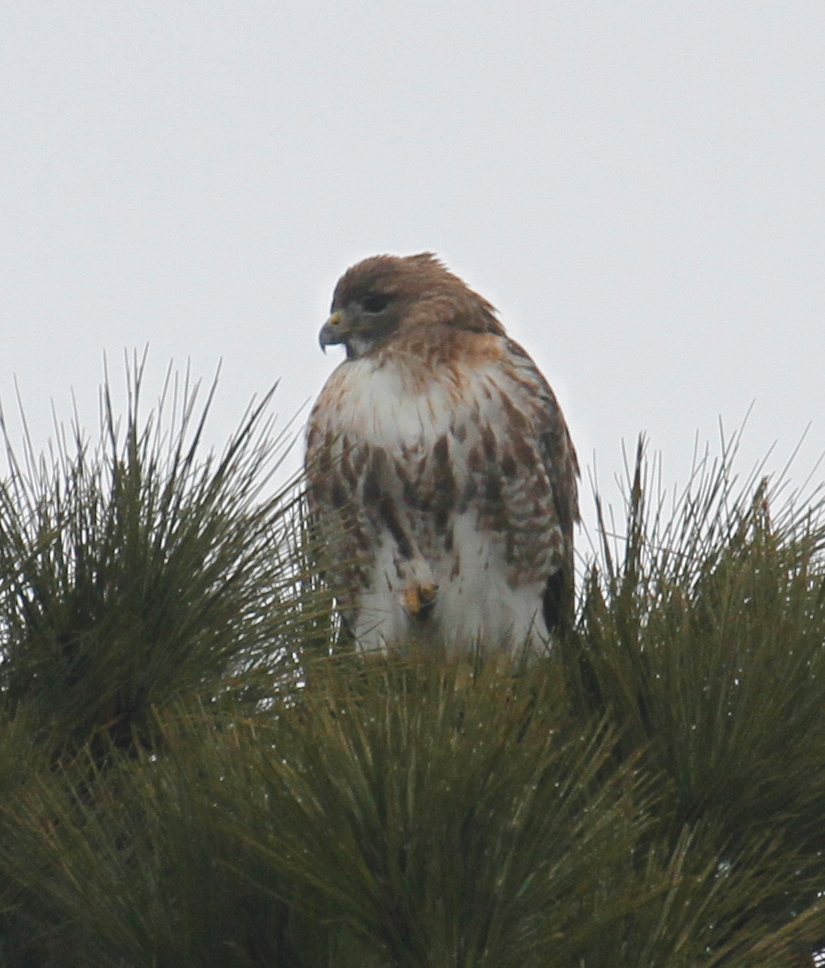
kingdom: Animalia
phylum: Chordata
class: Aves
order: Accipitriformes
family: Accipitridae
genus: Buteo
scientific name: Buteo jamaicensis
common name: Red-tailed hawk
